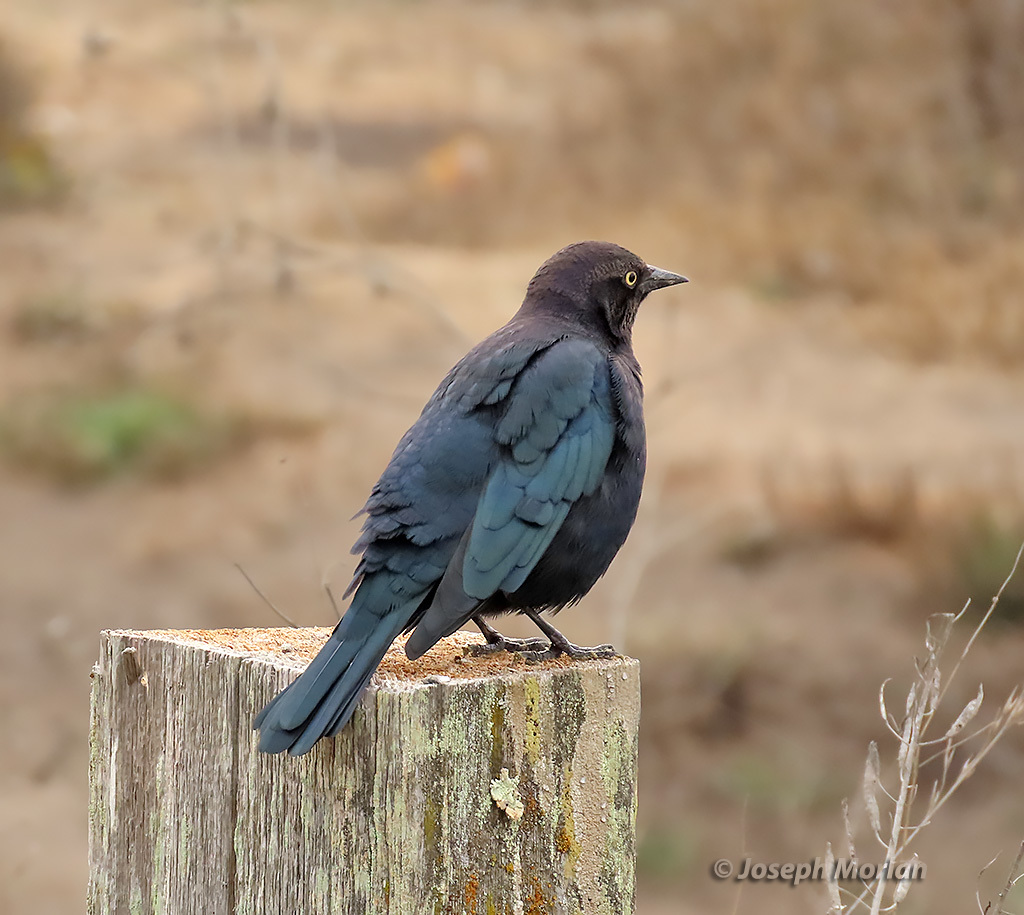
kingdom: Animalia
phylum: Chordata
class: Aves
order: Passeriformes
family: Icteridae
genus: Euphagus
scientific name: Euphagus cyanocephalus
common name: Brewer's blackbird
